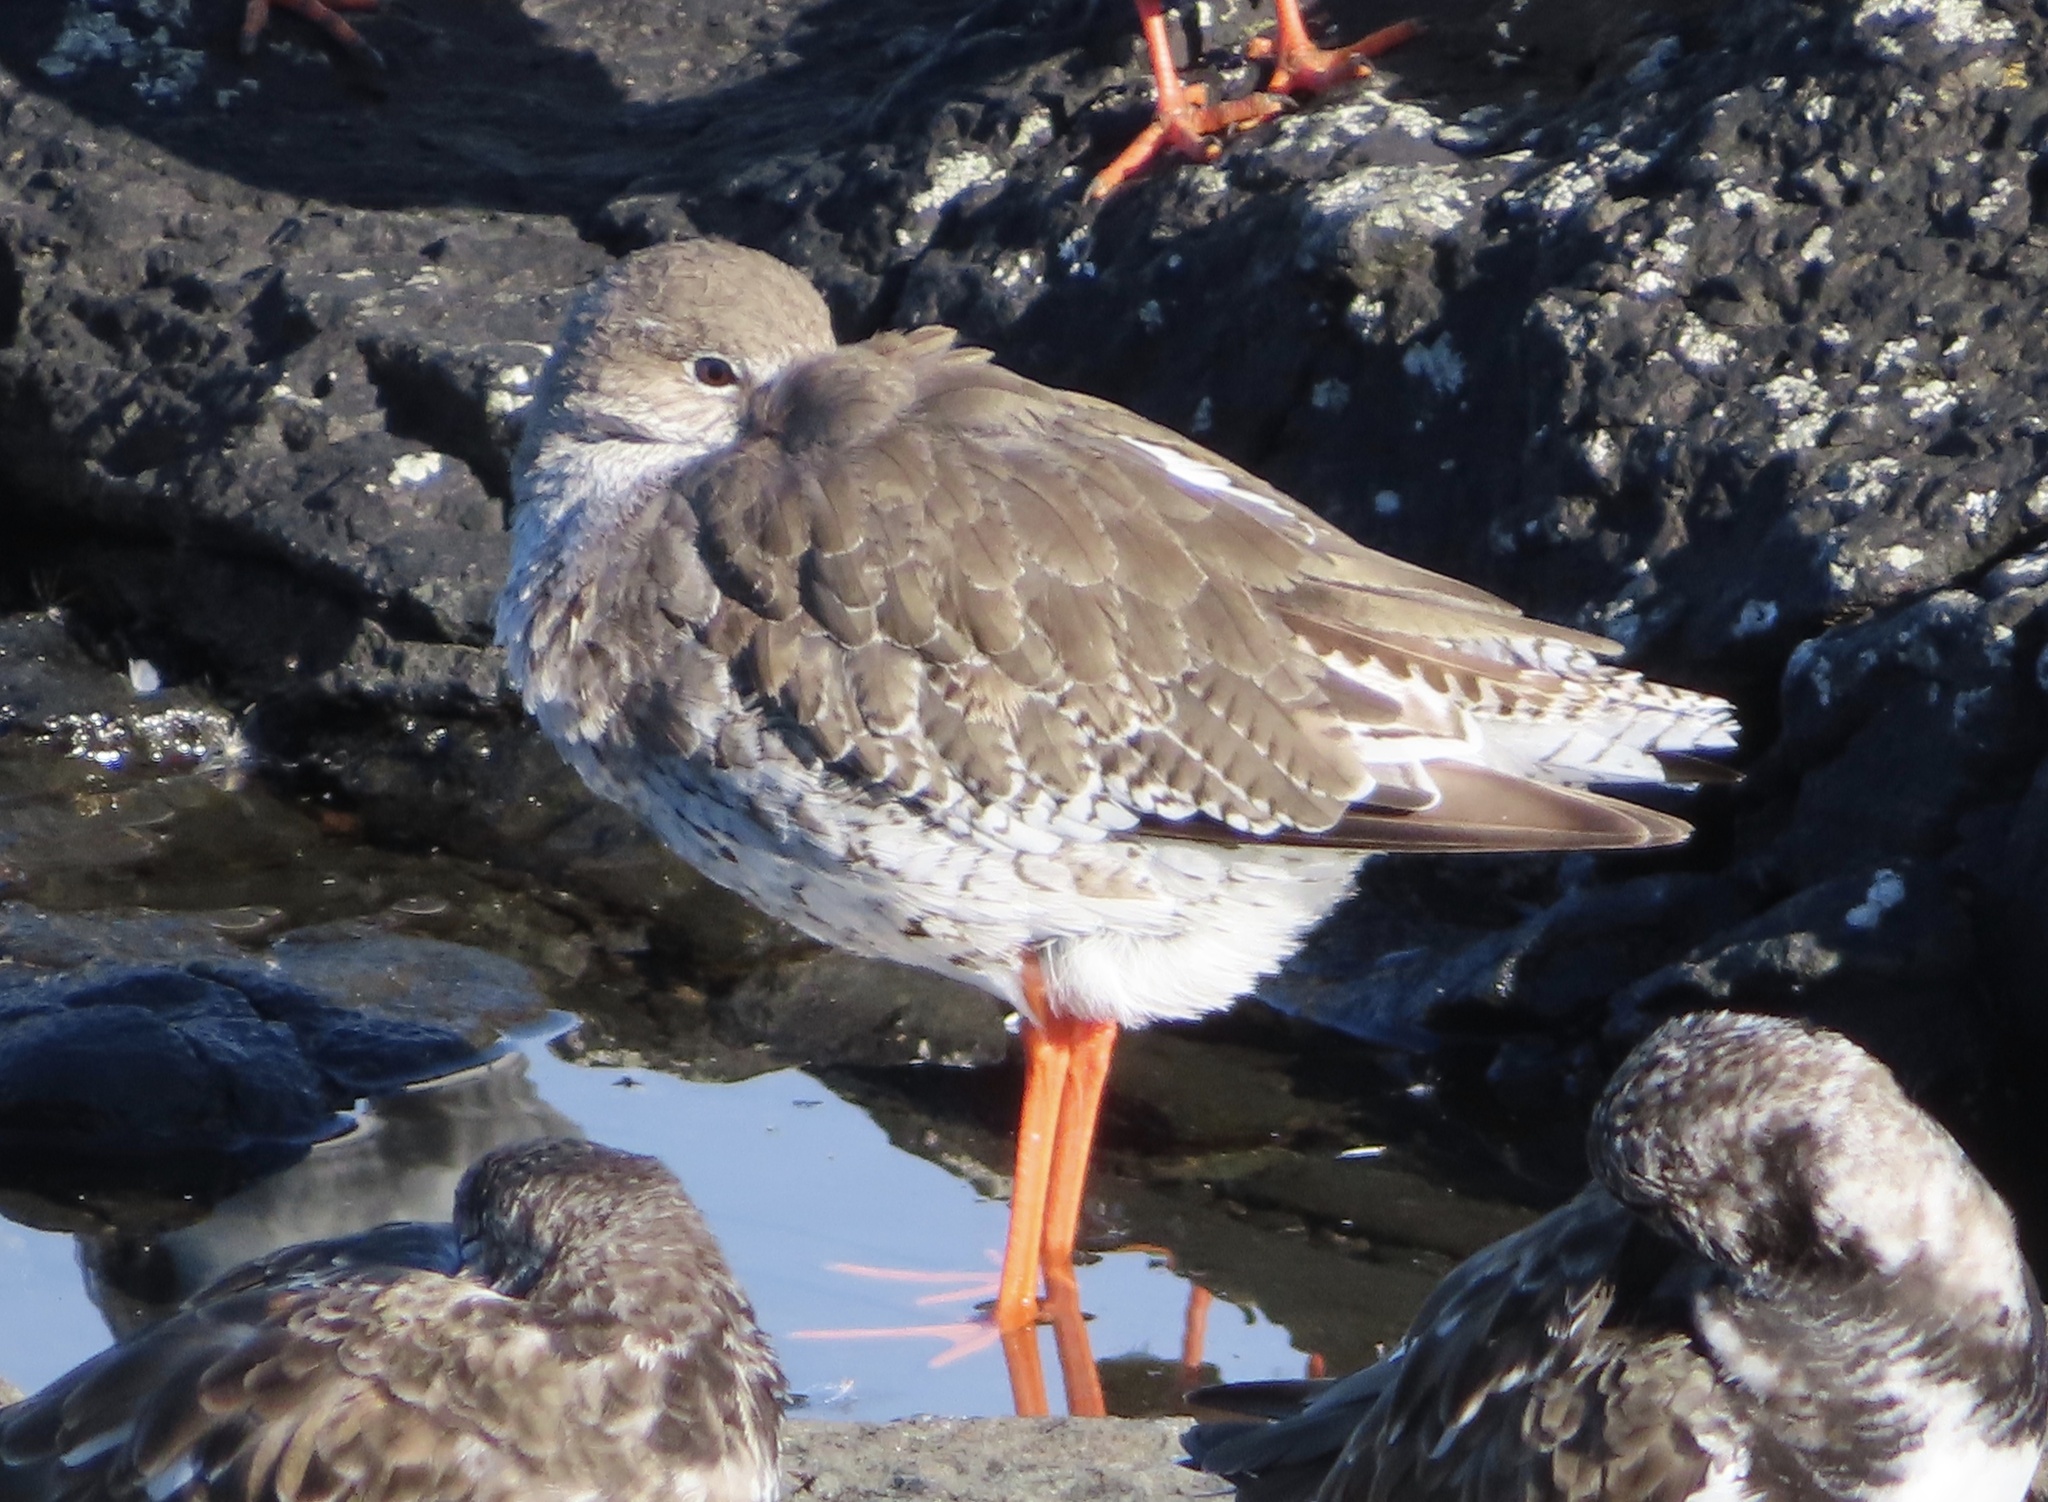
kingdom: Animalia
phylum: Chordata
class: Aves
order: Charadriiformes
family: Scolopacidae
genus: Tringa
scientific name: Tringa totanus
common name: Common redshank
